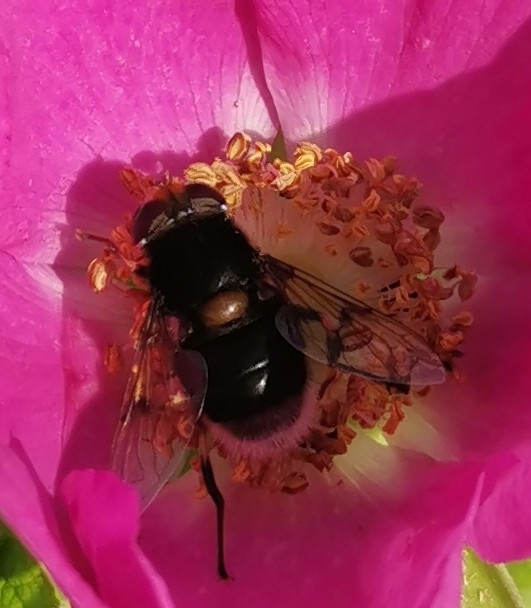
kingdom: Animalia
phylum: Arthropoda
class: Insecta
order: Diptera
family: Syrphidae
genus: Eristalis
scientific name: Eristalis intricaria
